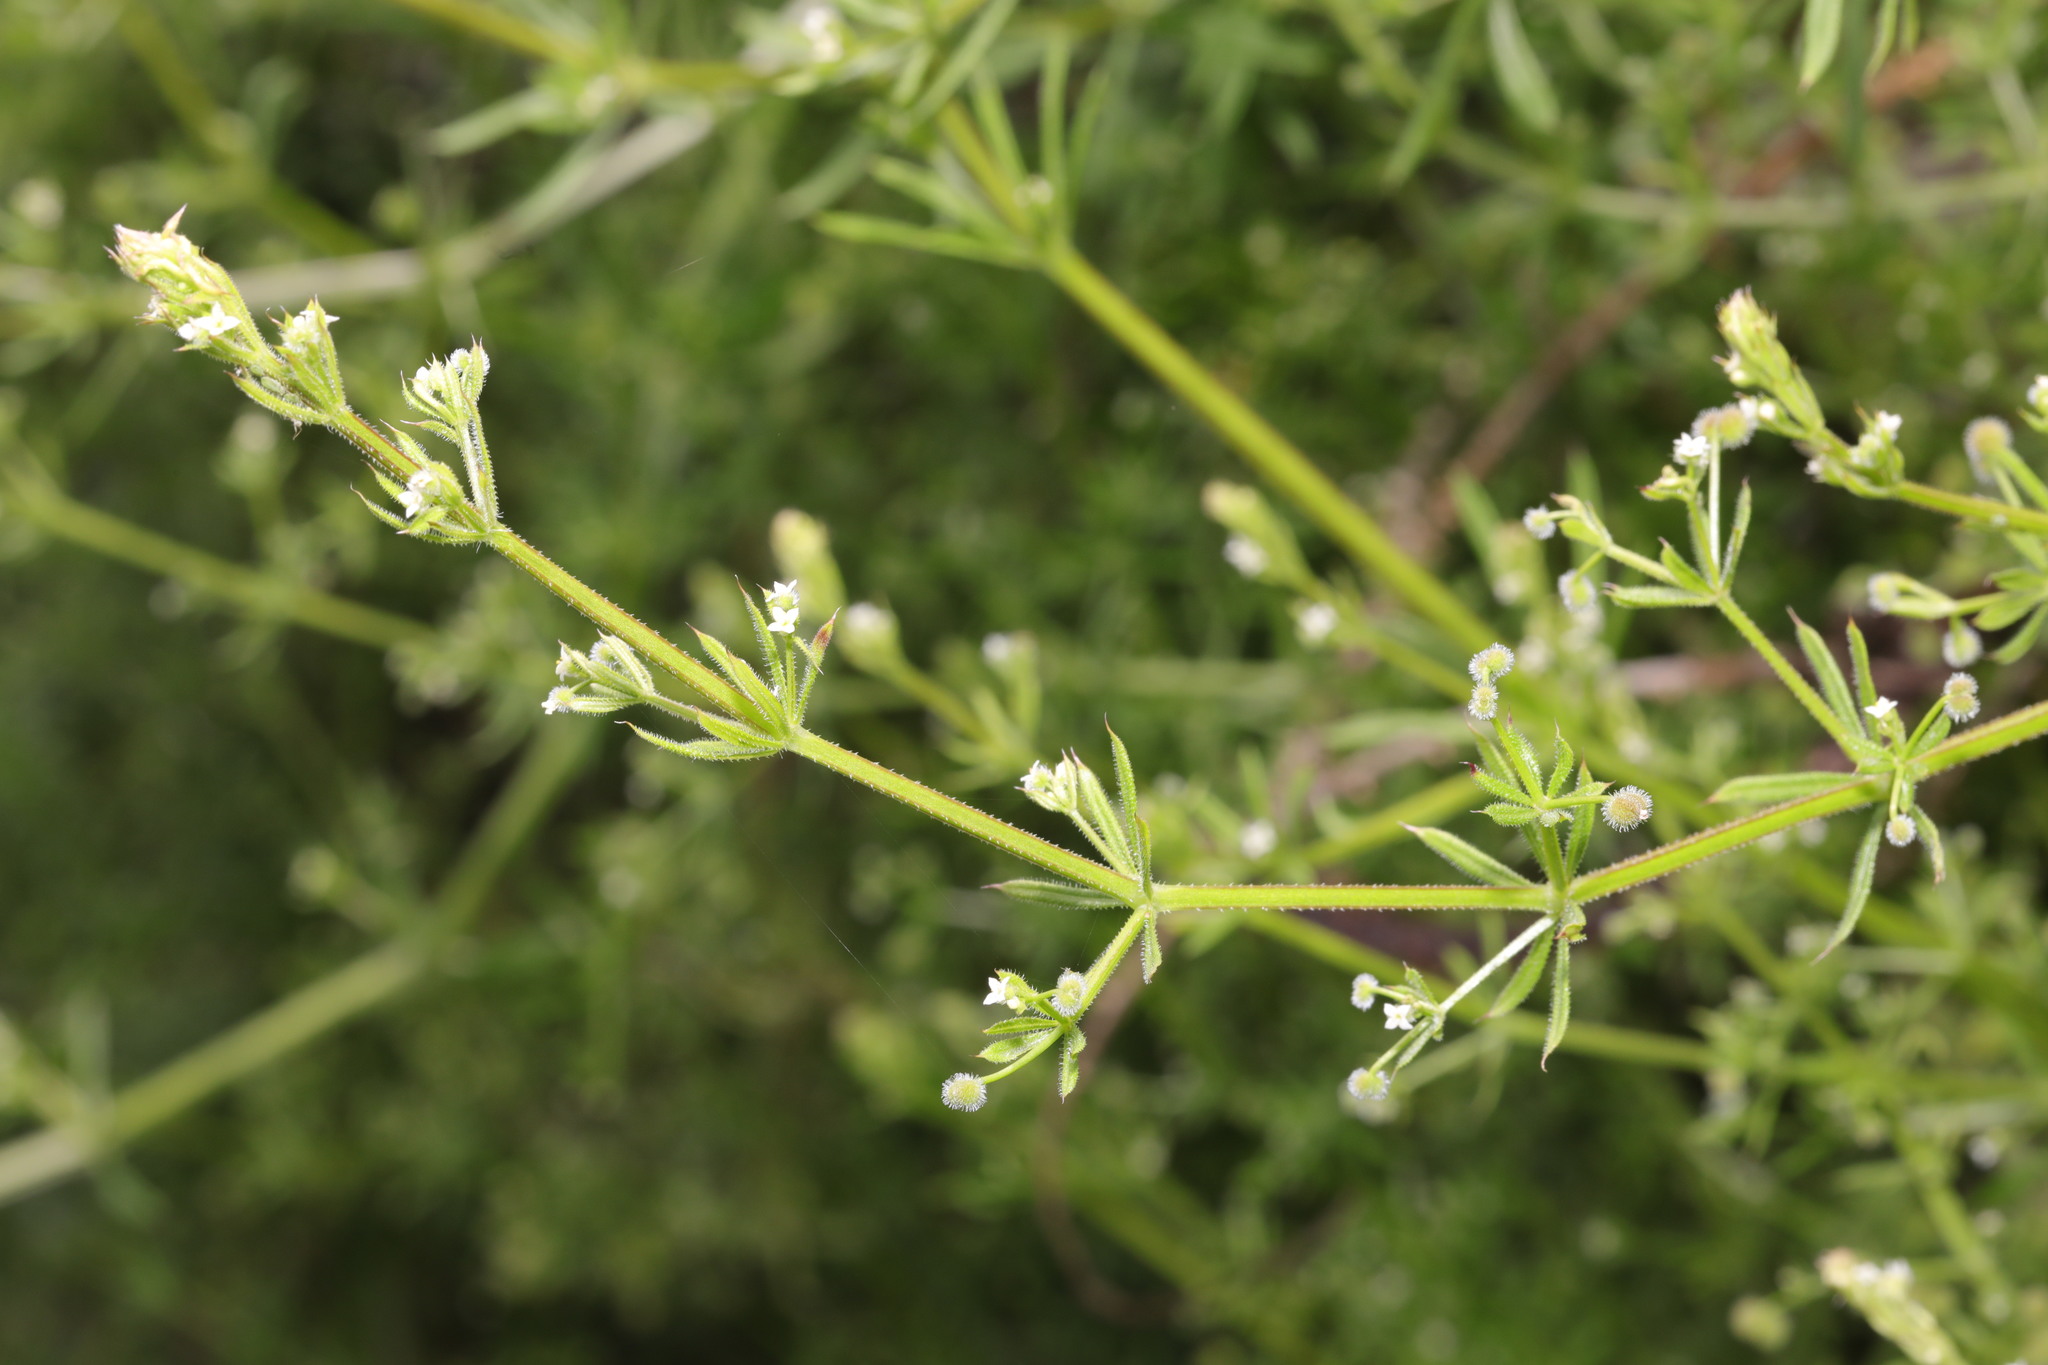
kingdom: Animalia
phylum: Arthropoda
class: Arachnida
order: Trombidiformes
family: Eriophyidae
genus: Cecidophyes
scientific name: Cecidophyes rouhollahi
